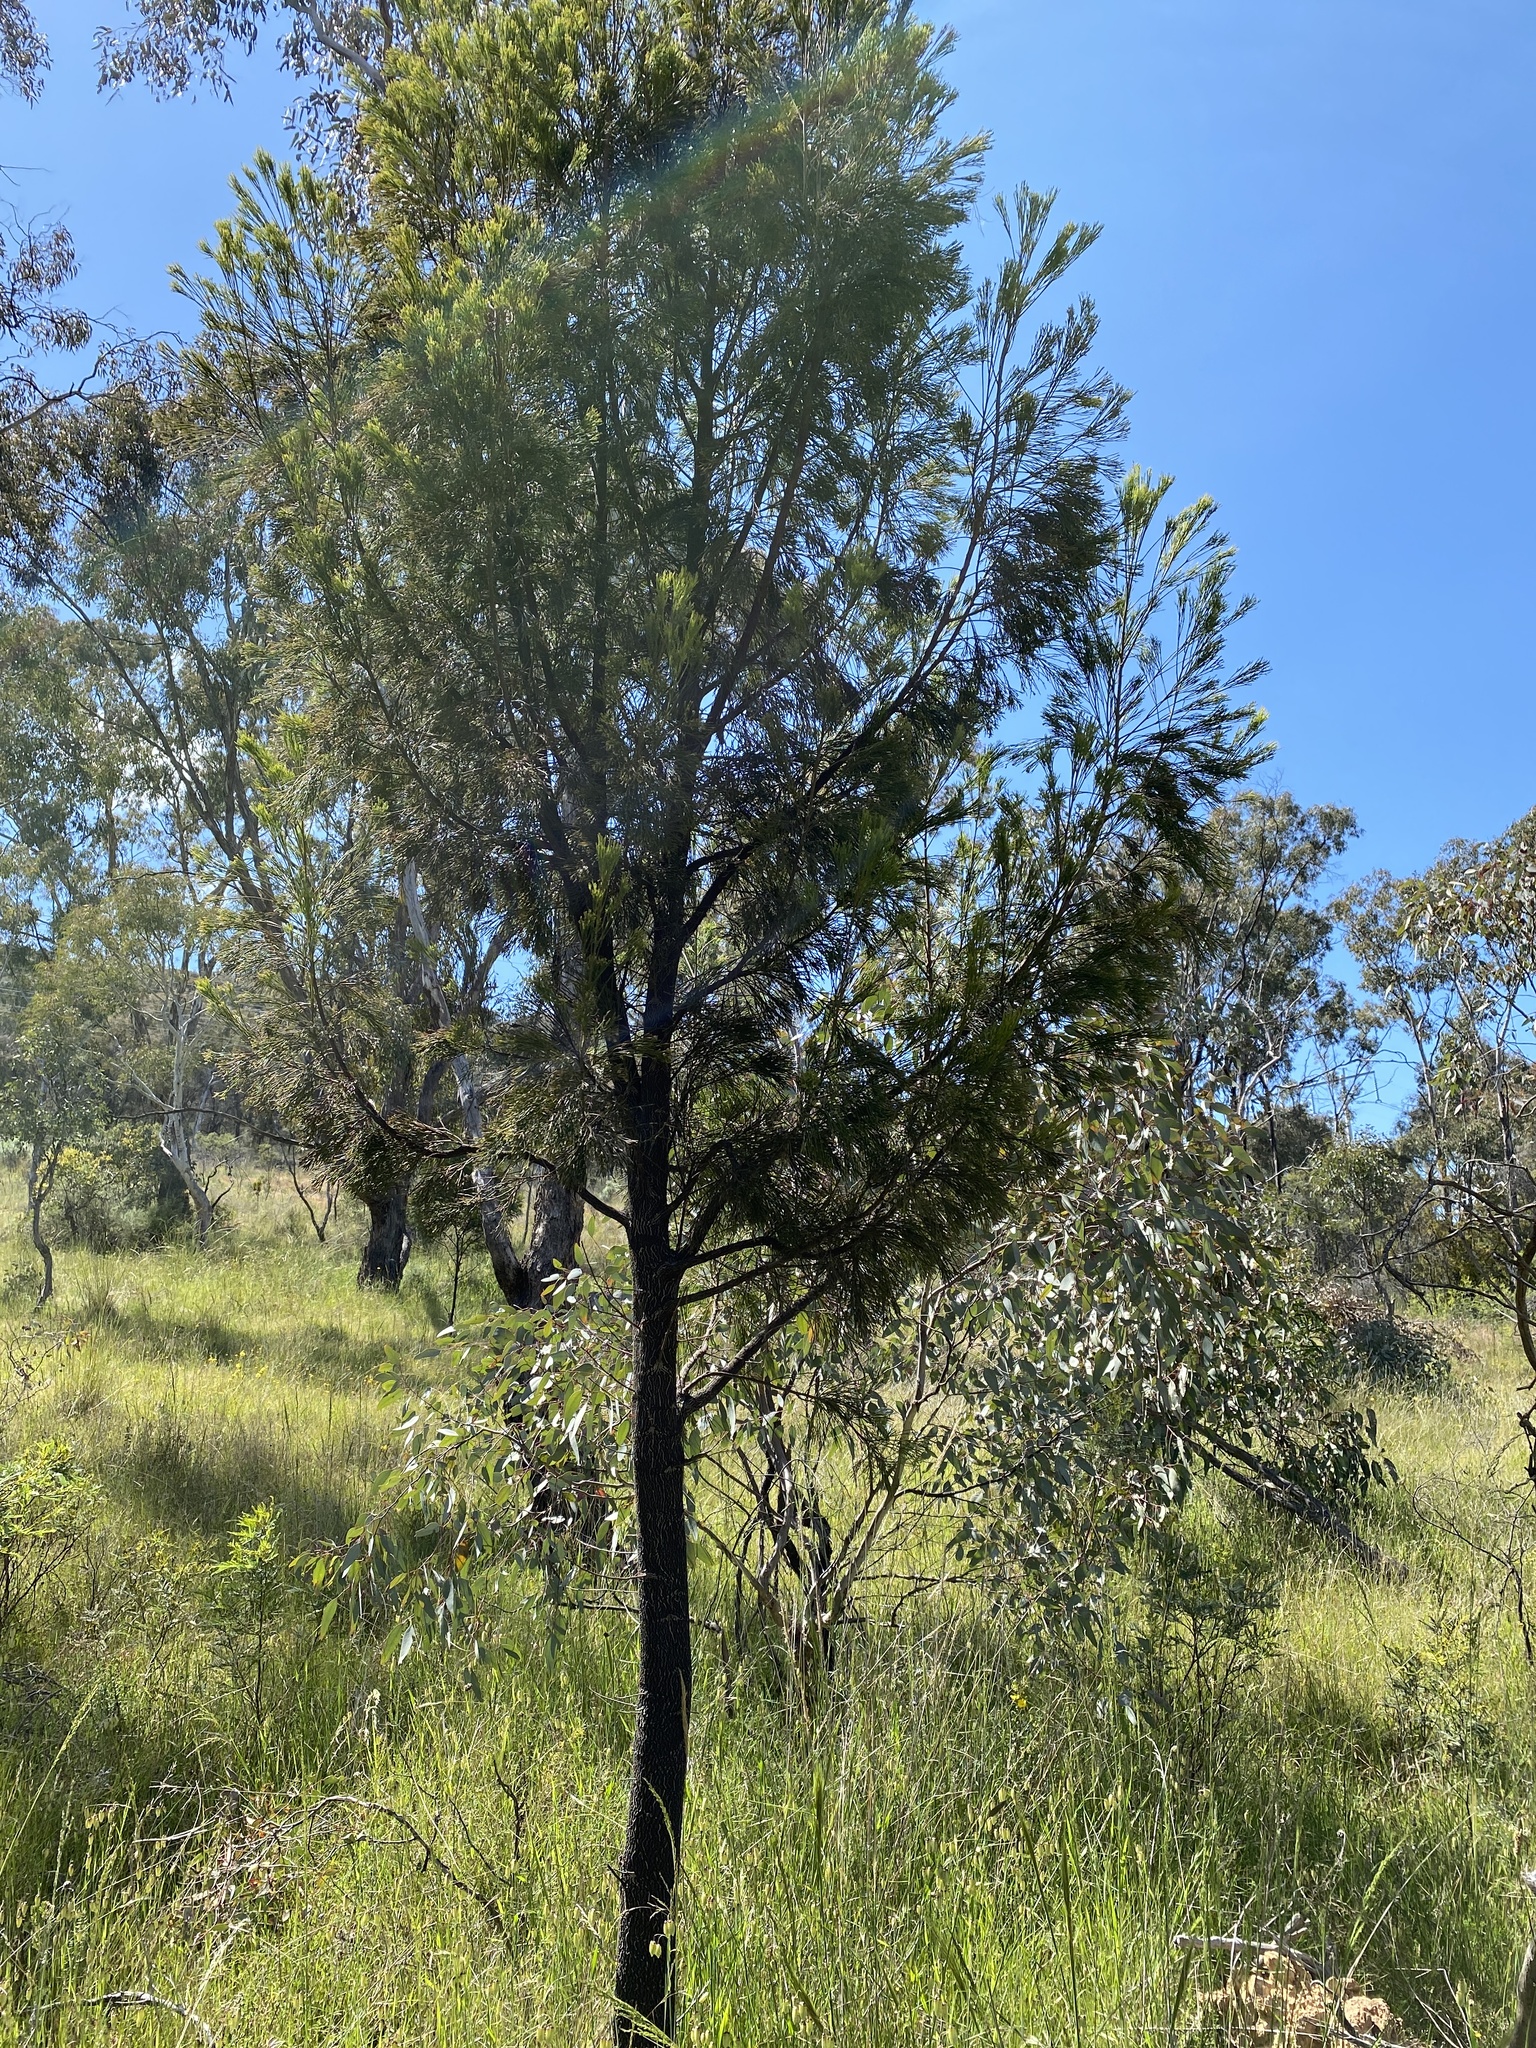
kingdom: Plantae
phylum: Tracheophyta
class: Magnoliopsida
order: Santalales
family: Santalaceae
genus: Exocarpos
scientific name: Exocarpos cupressiformis
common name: Cherry ballart
